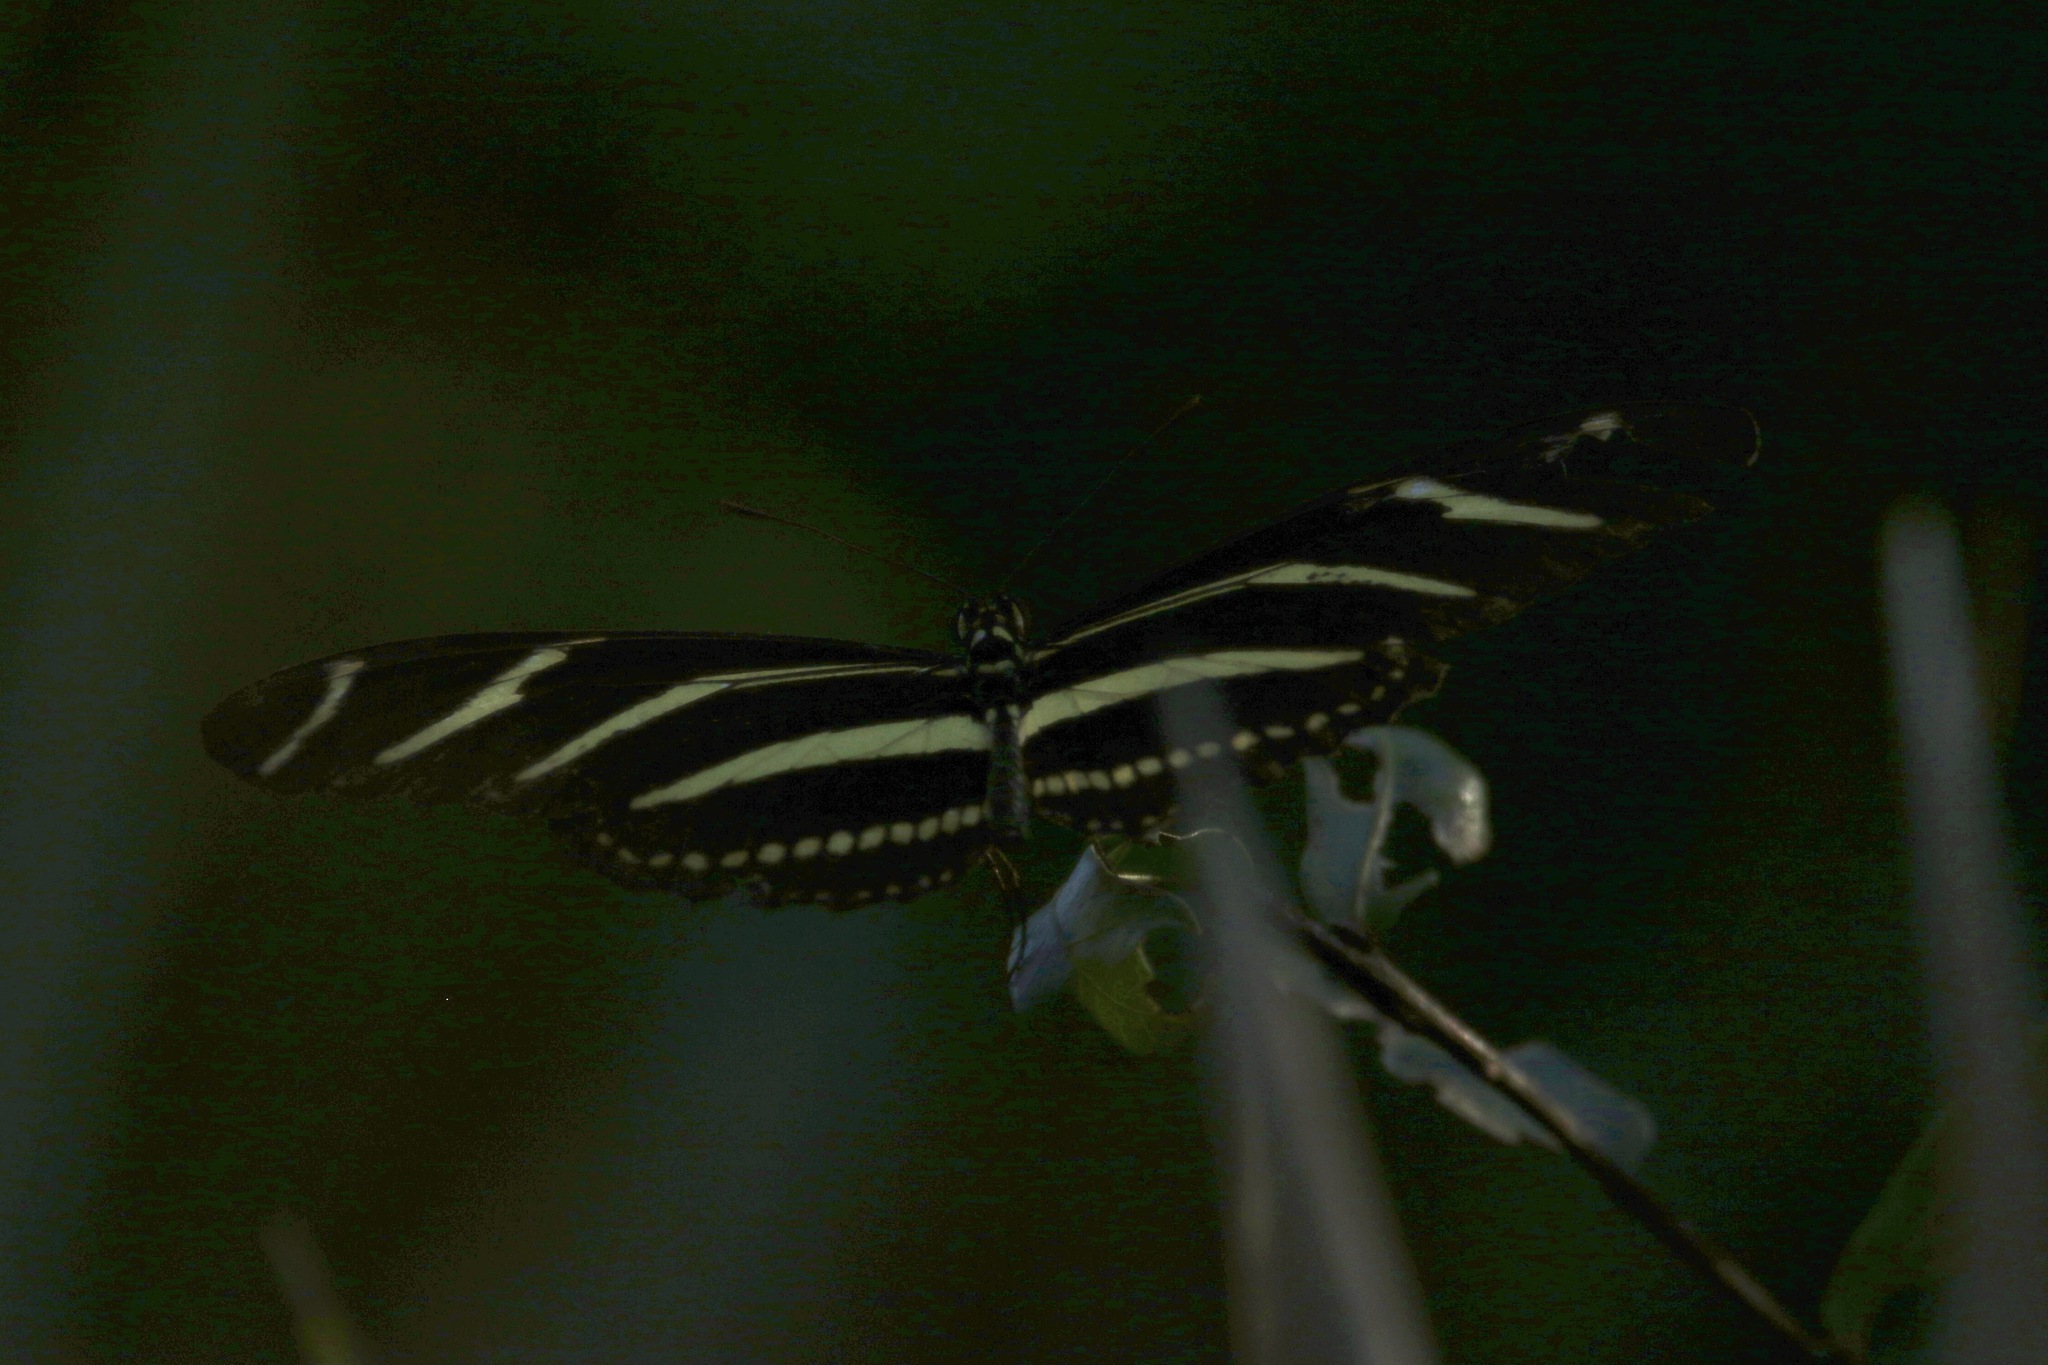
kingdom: Animalia
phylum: Arthropoda
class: Insecta
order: Lepidoptera
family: Nymphalidae
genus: Heliconius
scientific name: Heliconius charithonia
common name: Zebra long wing
